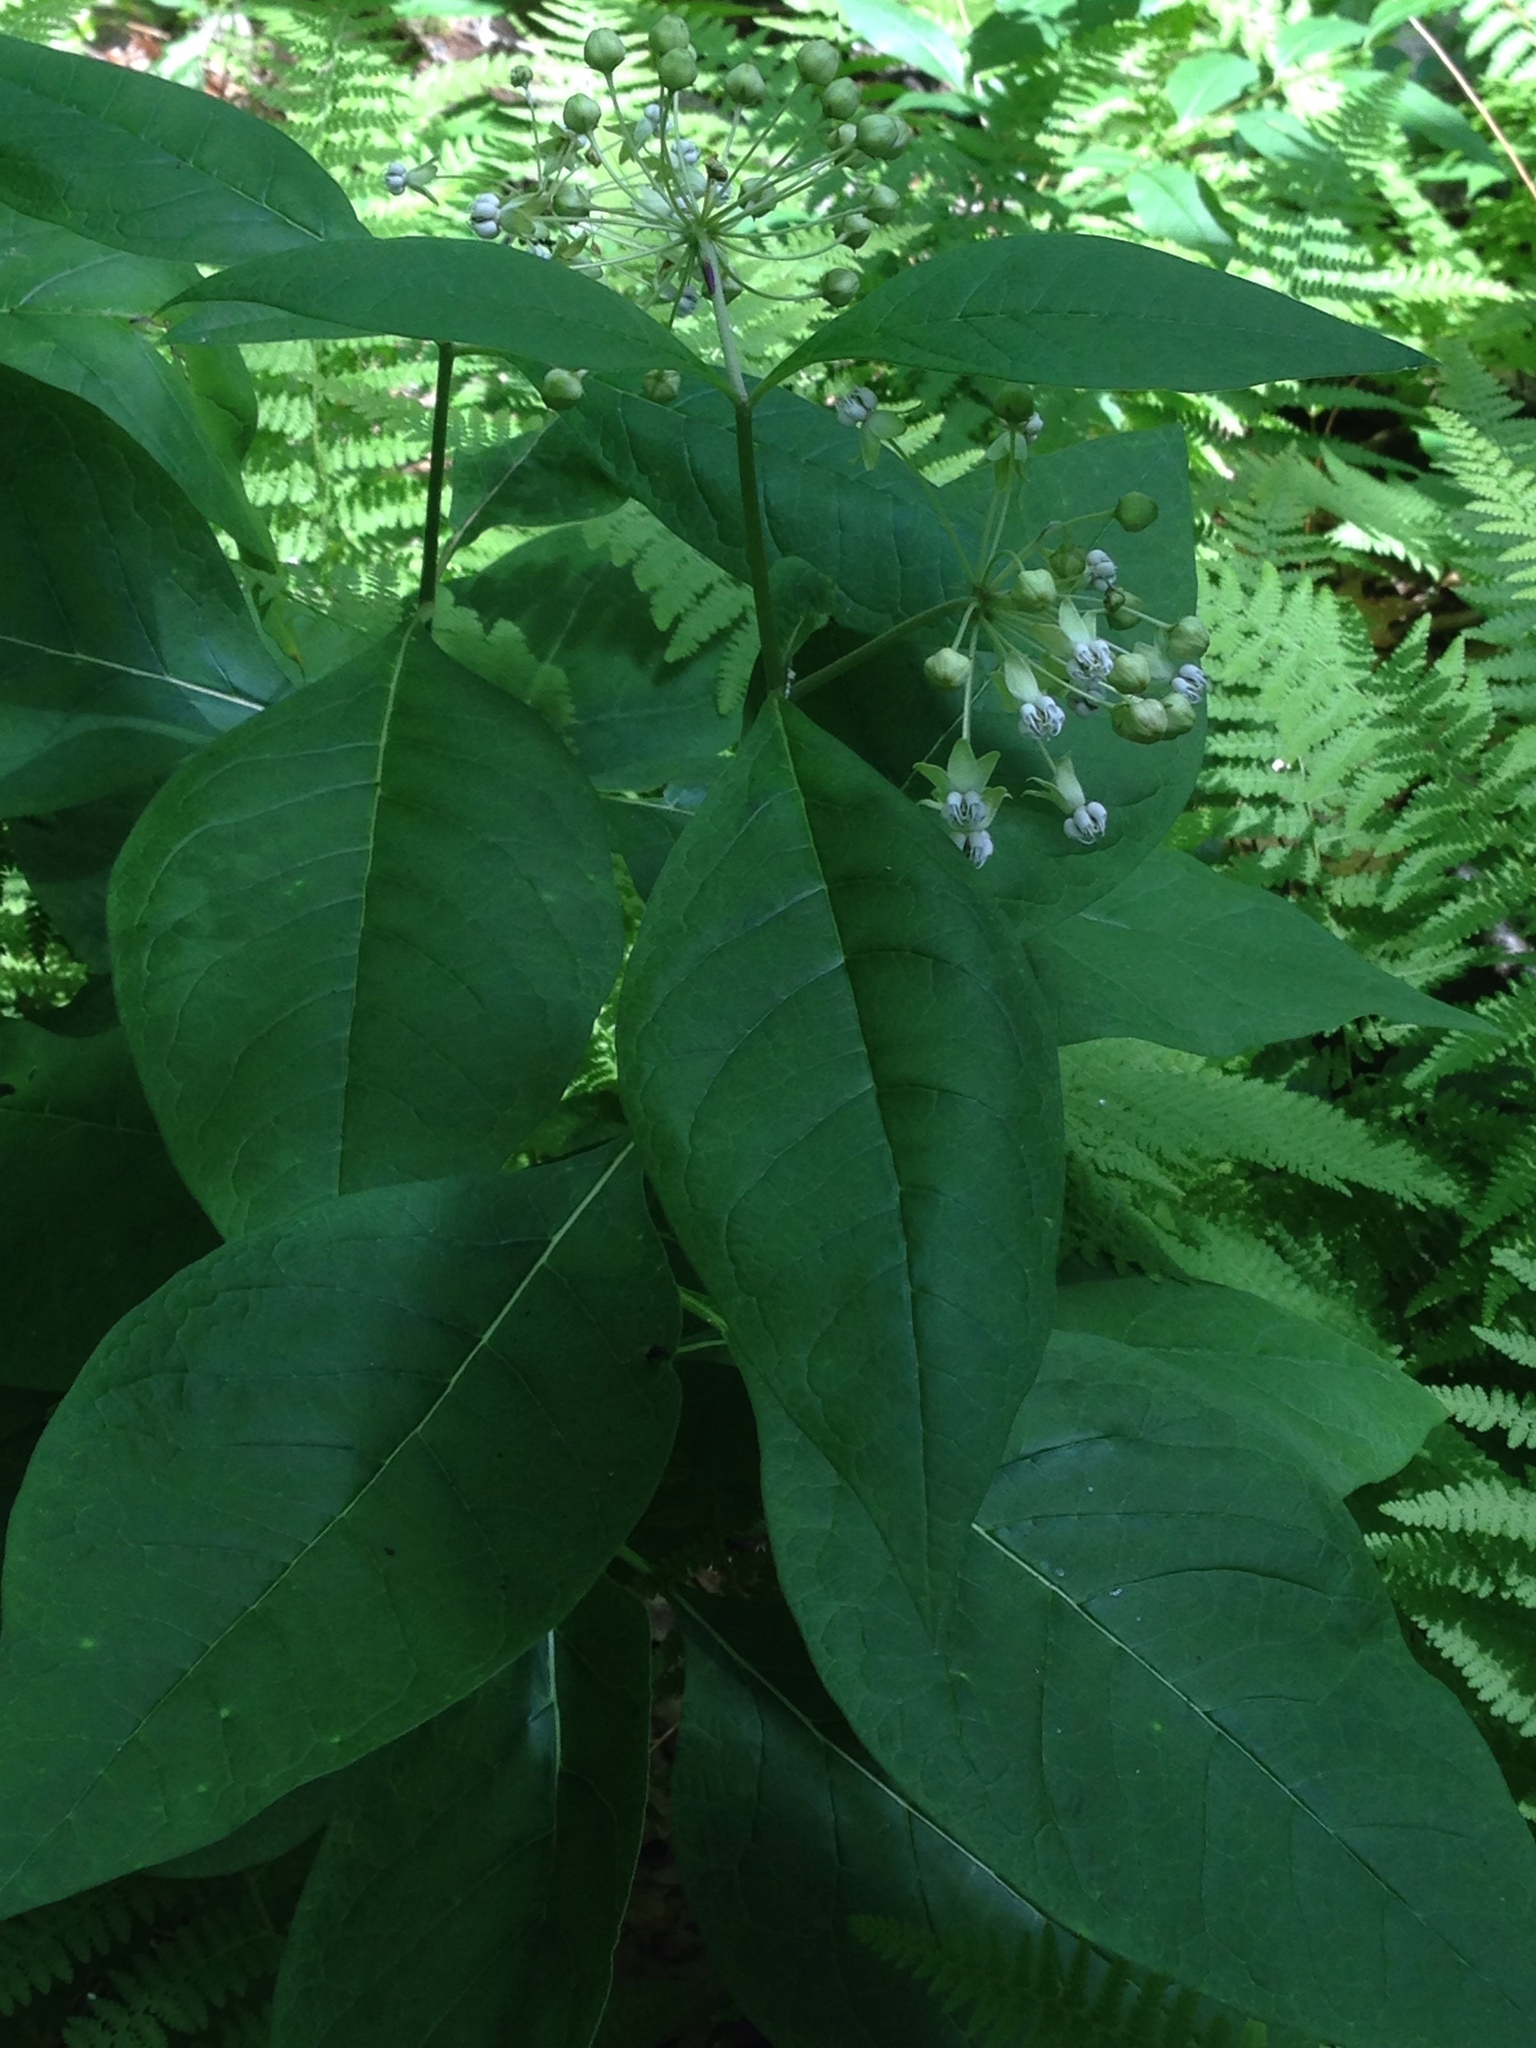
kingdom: Plantae
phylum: Tracheophyta
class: Magnoliopsida
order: Gentianales
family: Apocynaceae
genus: Asclepias
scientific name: Asclepias exaltata
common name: Poke milkweed
